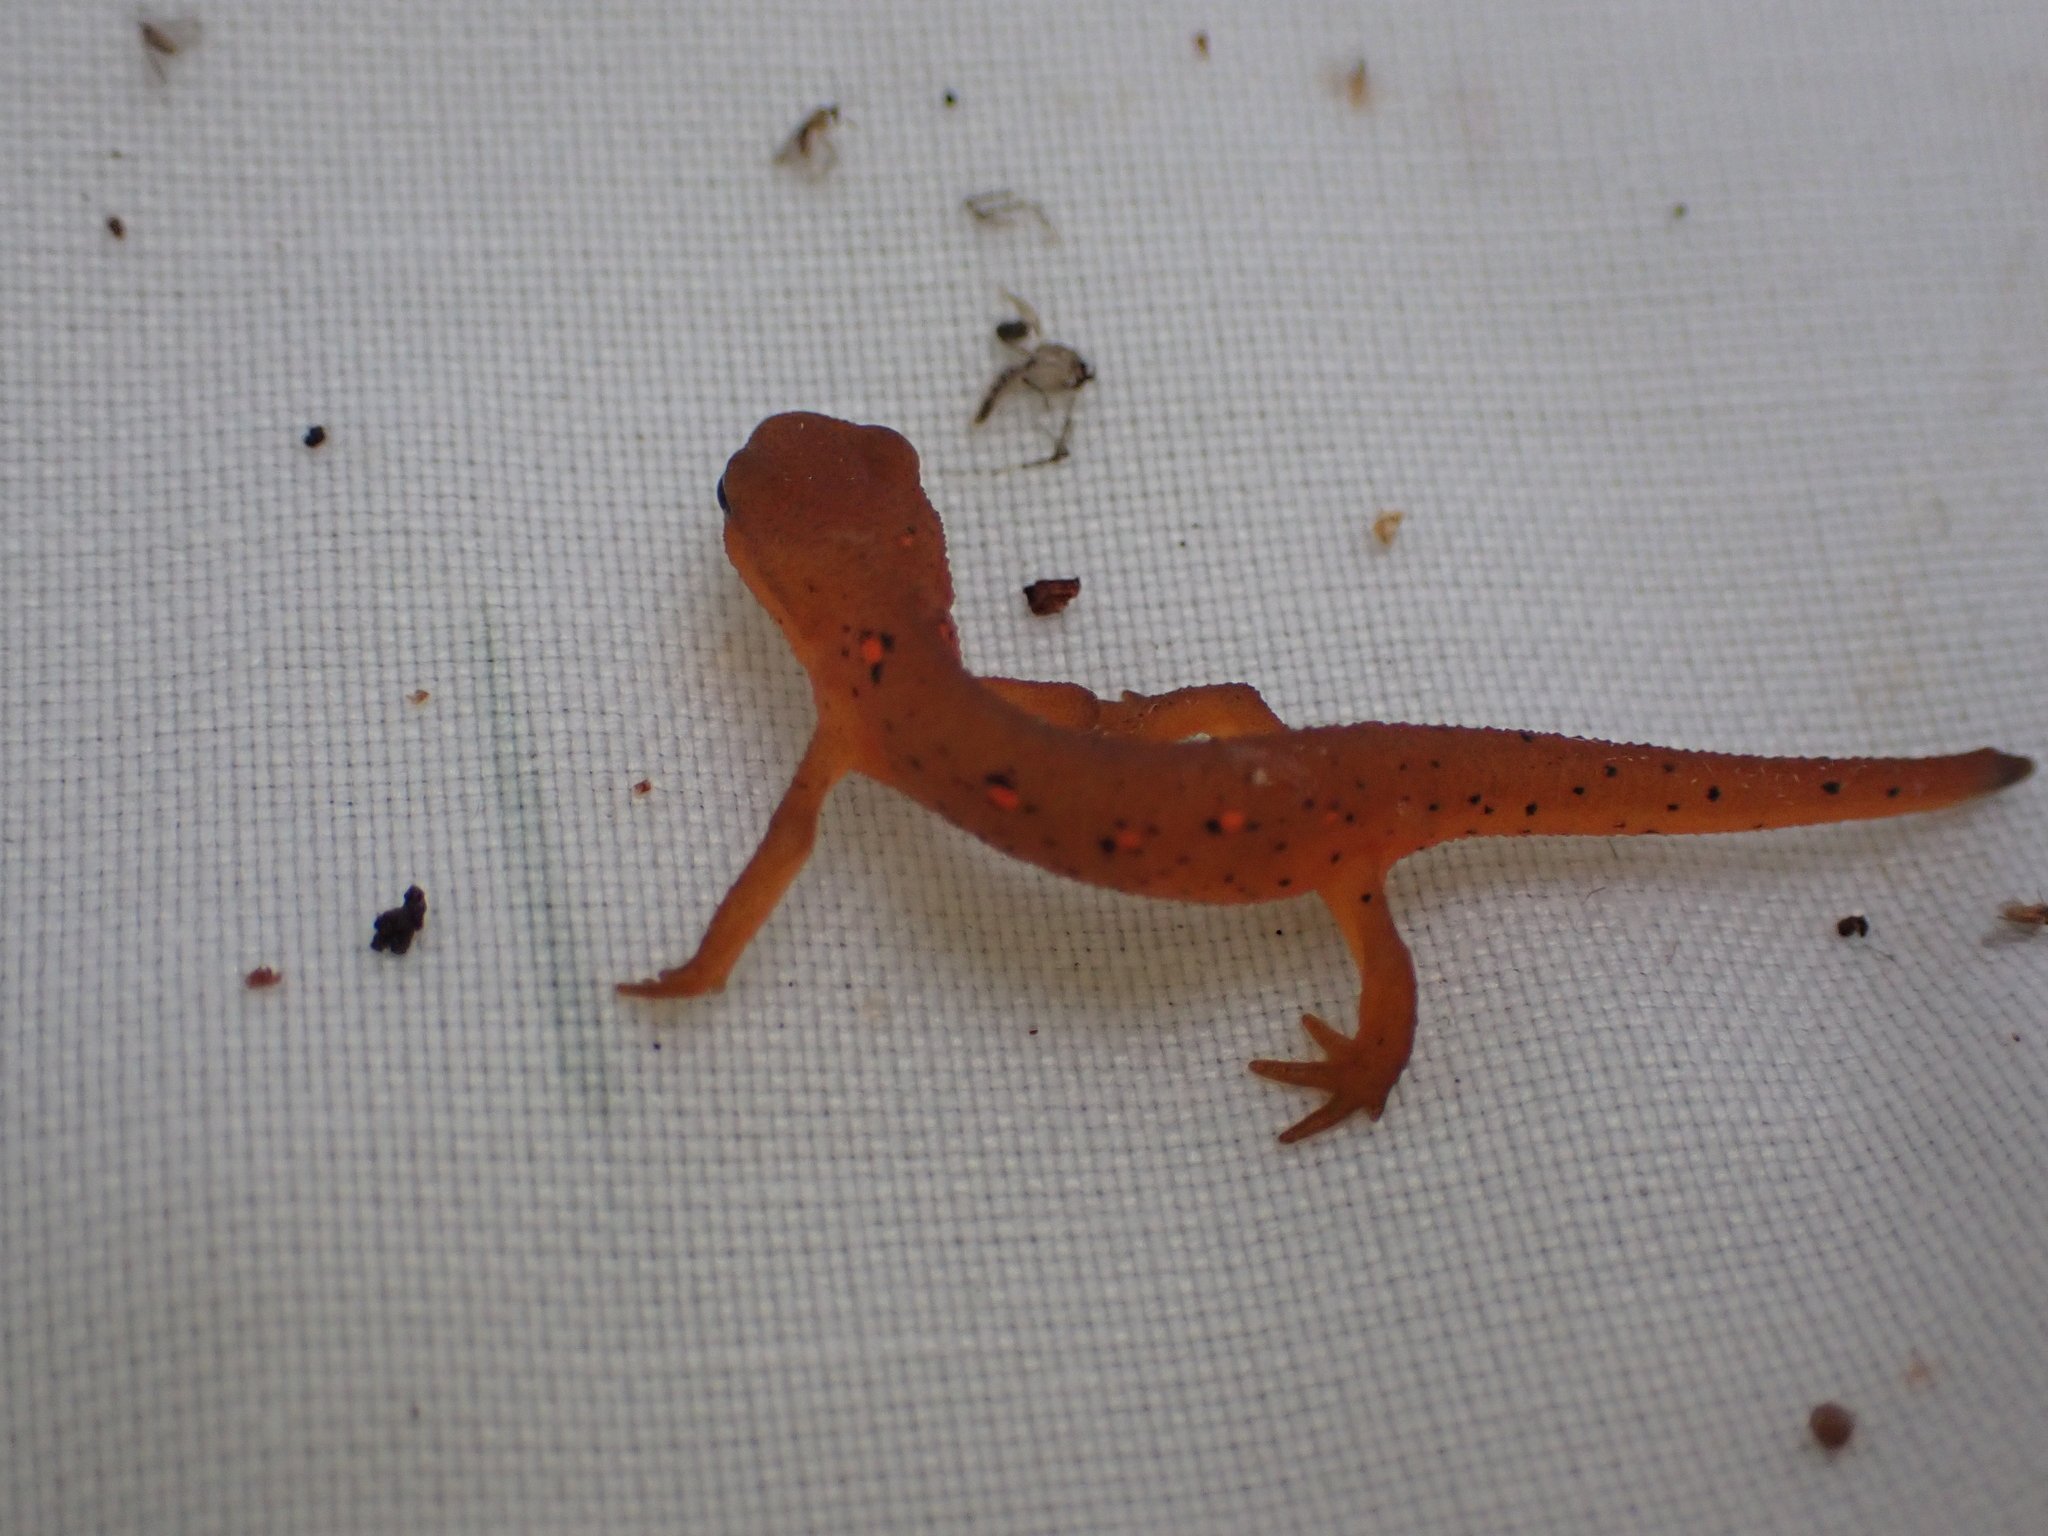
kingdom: Animalia
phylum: Chordata
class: Amphibia
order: Caudata
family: Salamandridae
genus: Notophthalmus
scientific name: Notophthalmus viridescens
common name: Eastern newt
